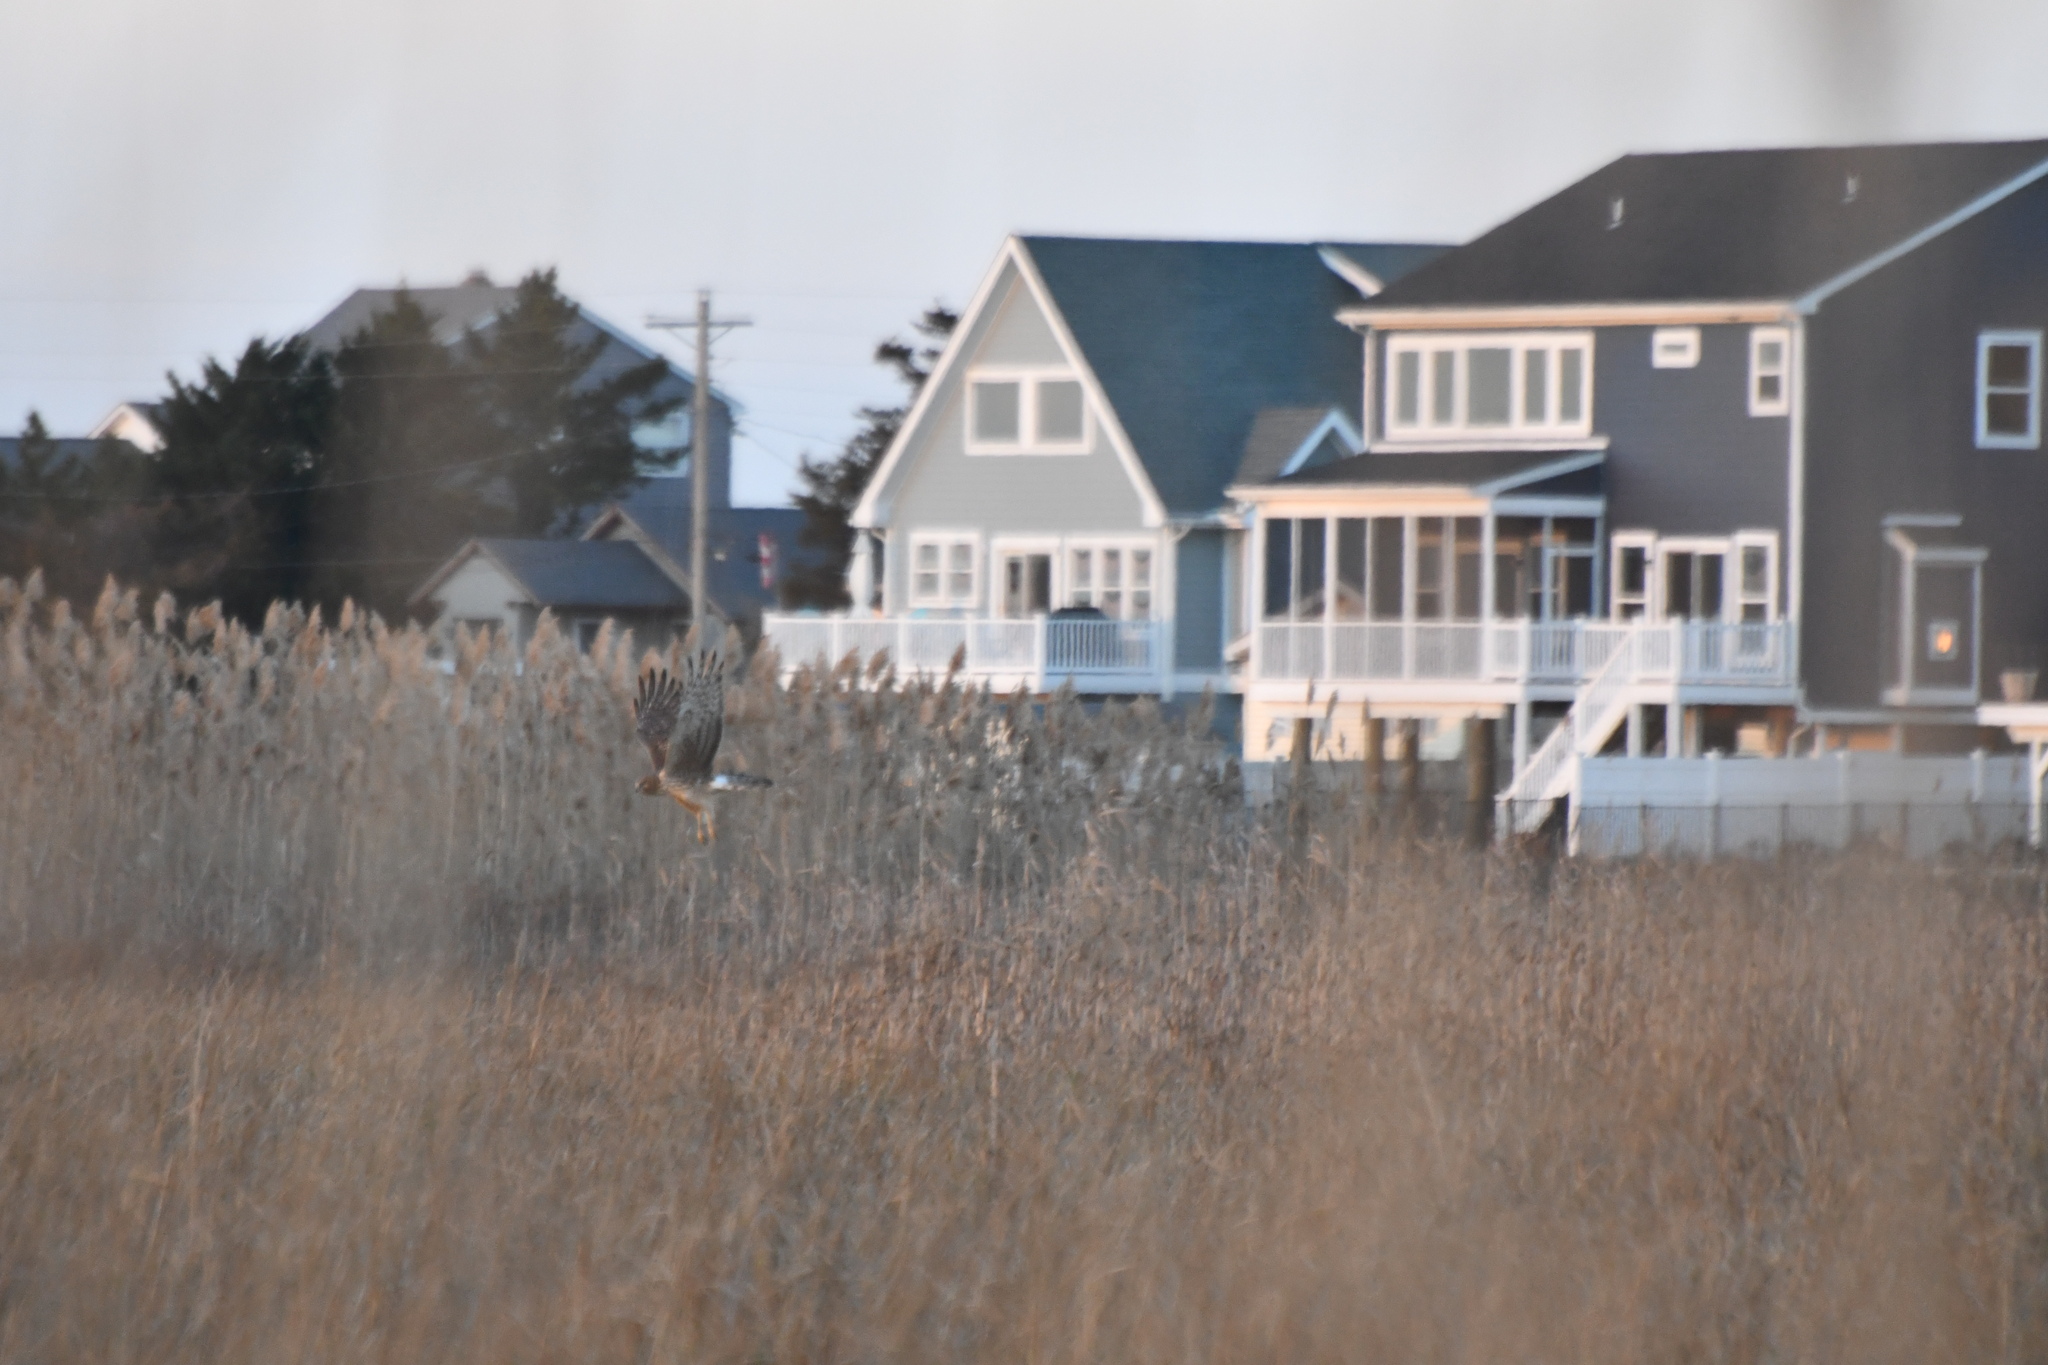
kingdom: Animalia
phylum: Chordata
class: Aves
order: Accipitriformes
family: Accipitridae
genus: Circus
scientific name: Circus cyaneus
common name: Hen harrier
